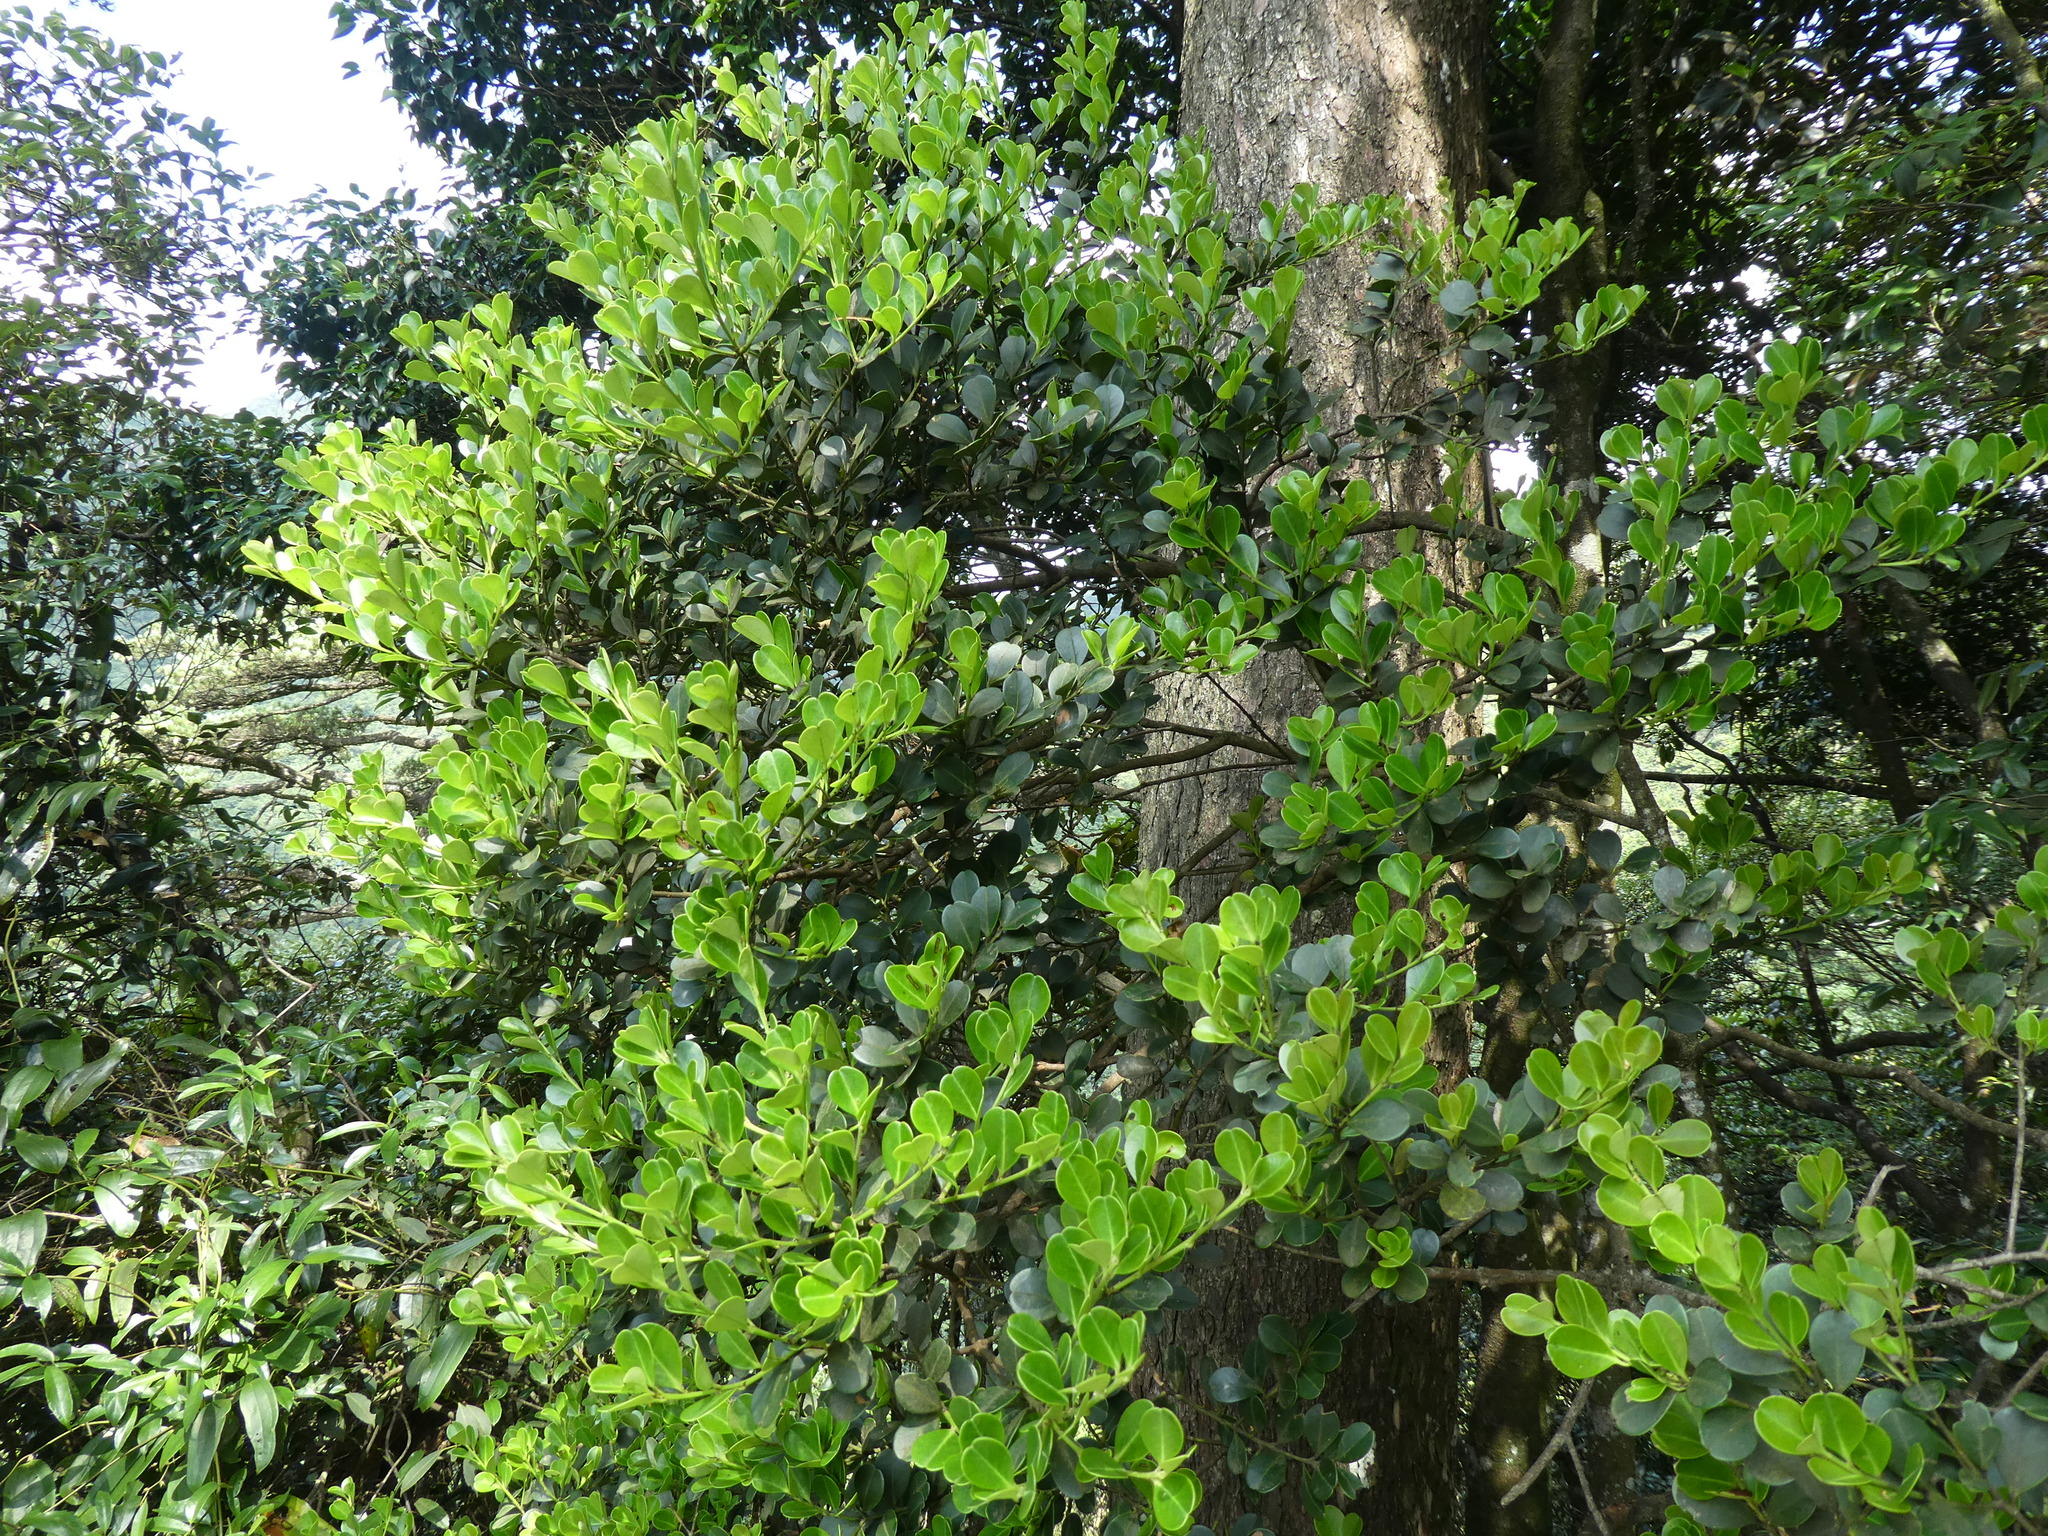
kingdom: Plantae
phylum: Tracheophyta
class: Magnoliopsida
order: Aquifoliales
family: Aquifoliaceae
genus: Ilex
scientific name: Ilex championii
